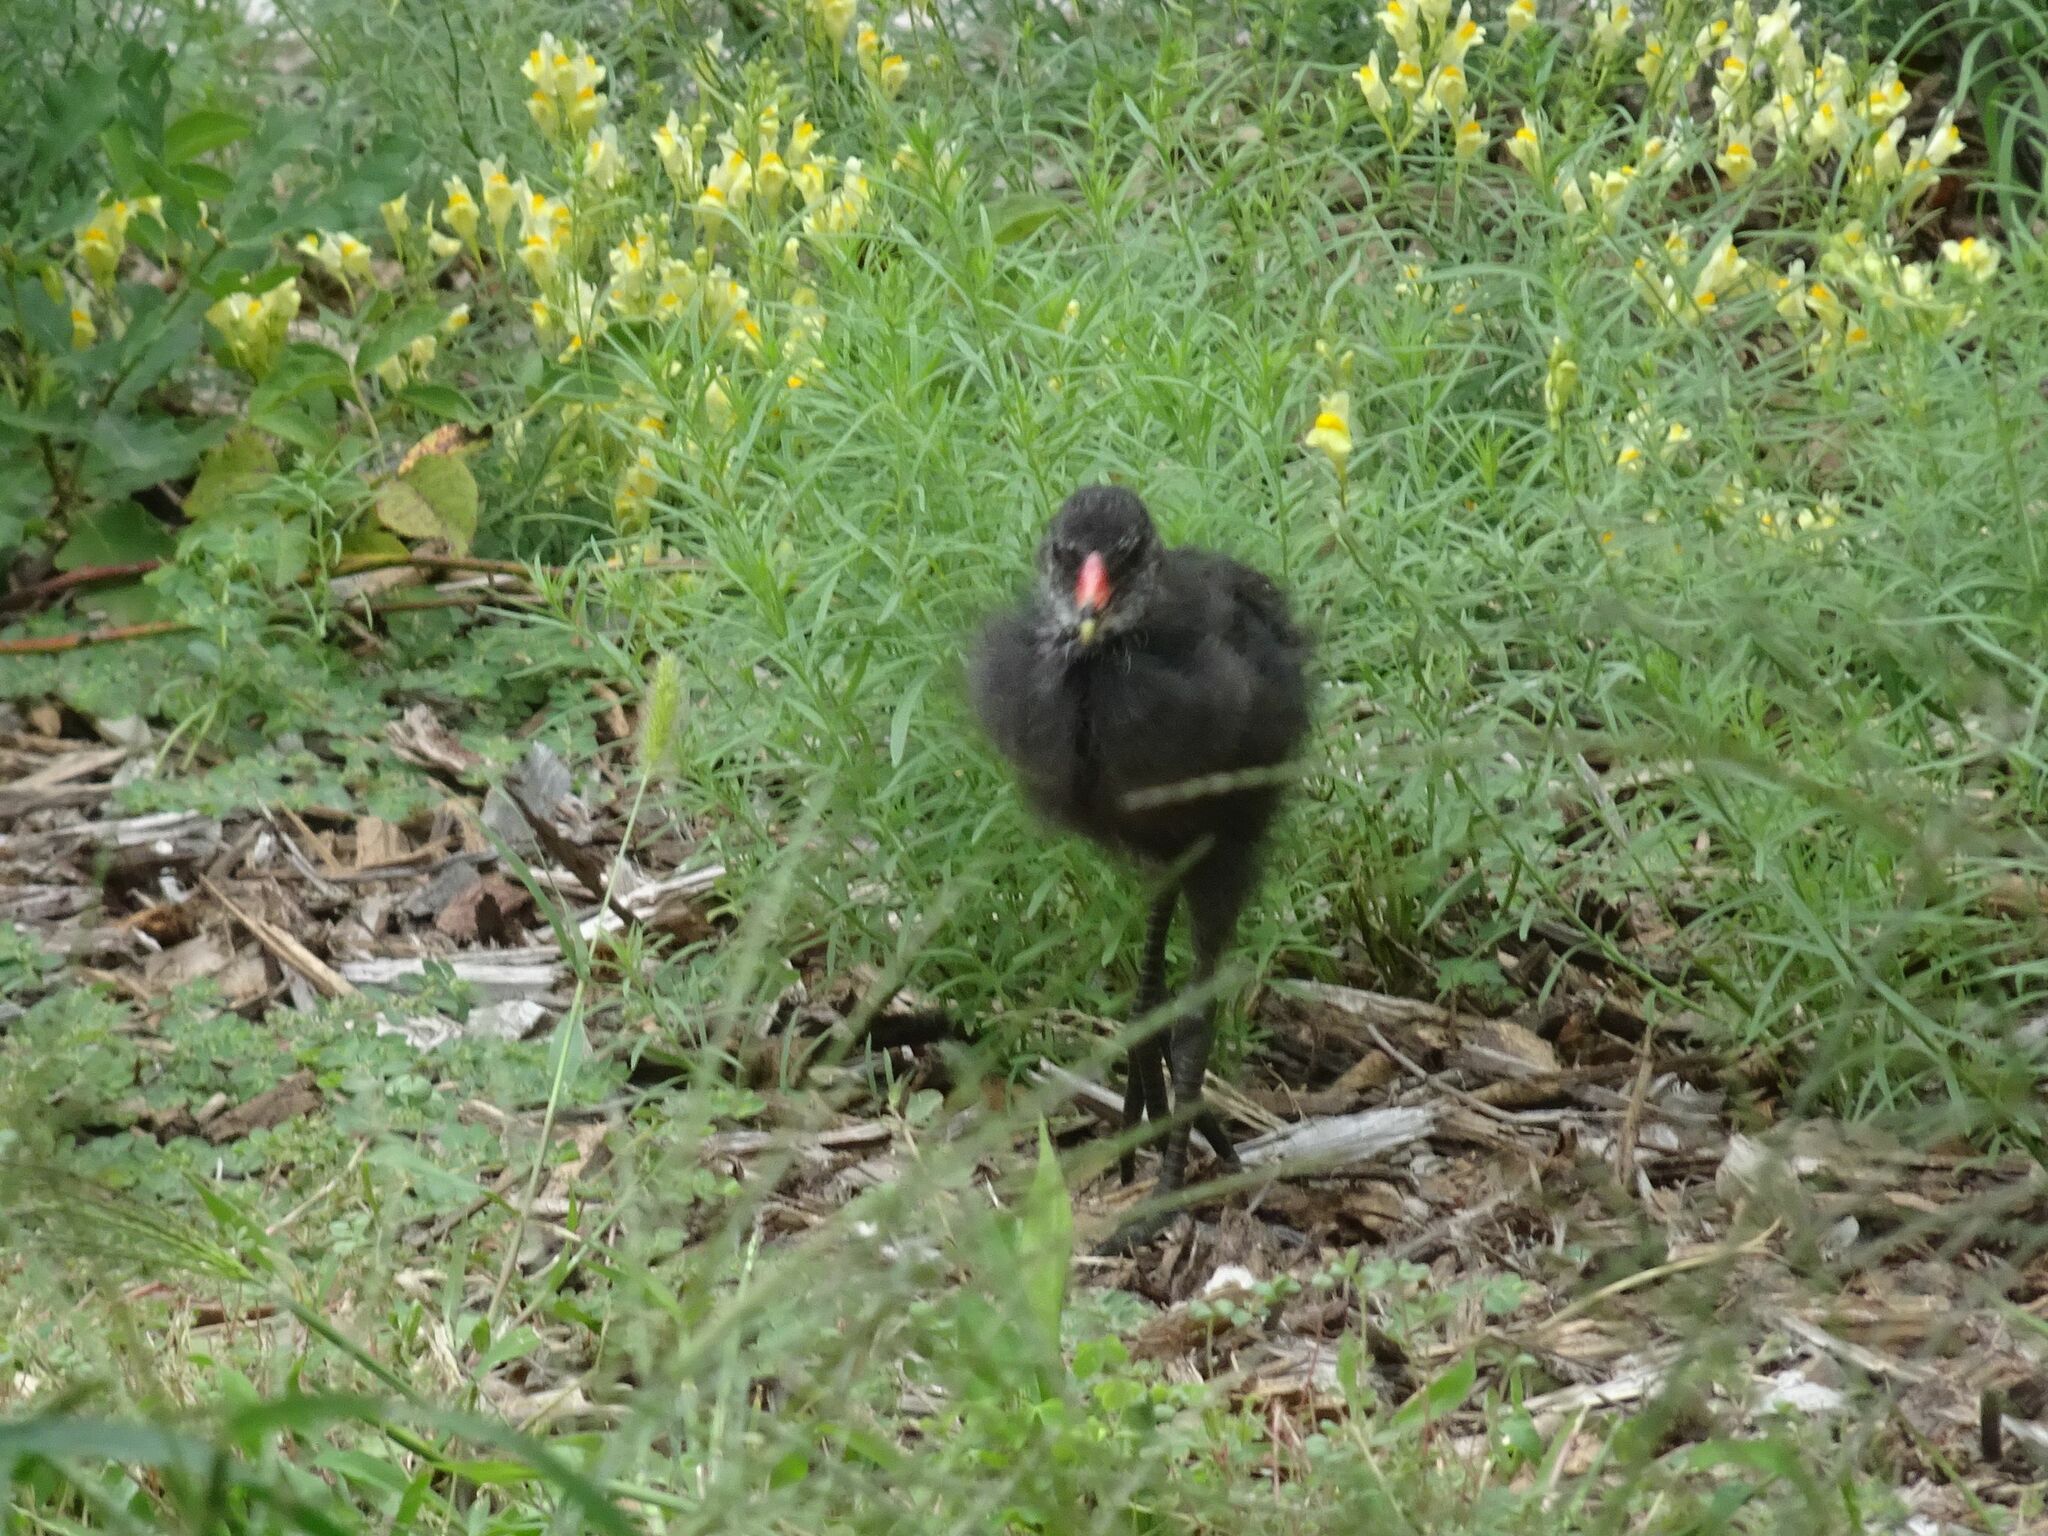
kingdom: Animalia
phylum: Chordata
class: Aves
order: Gruiformes
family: Rallidae
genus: Gallinula
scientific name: Gallinula chloropus
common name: Common moorhen
